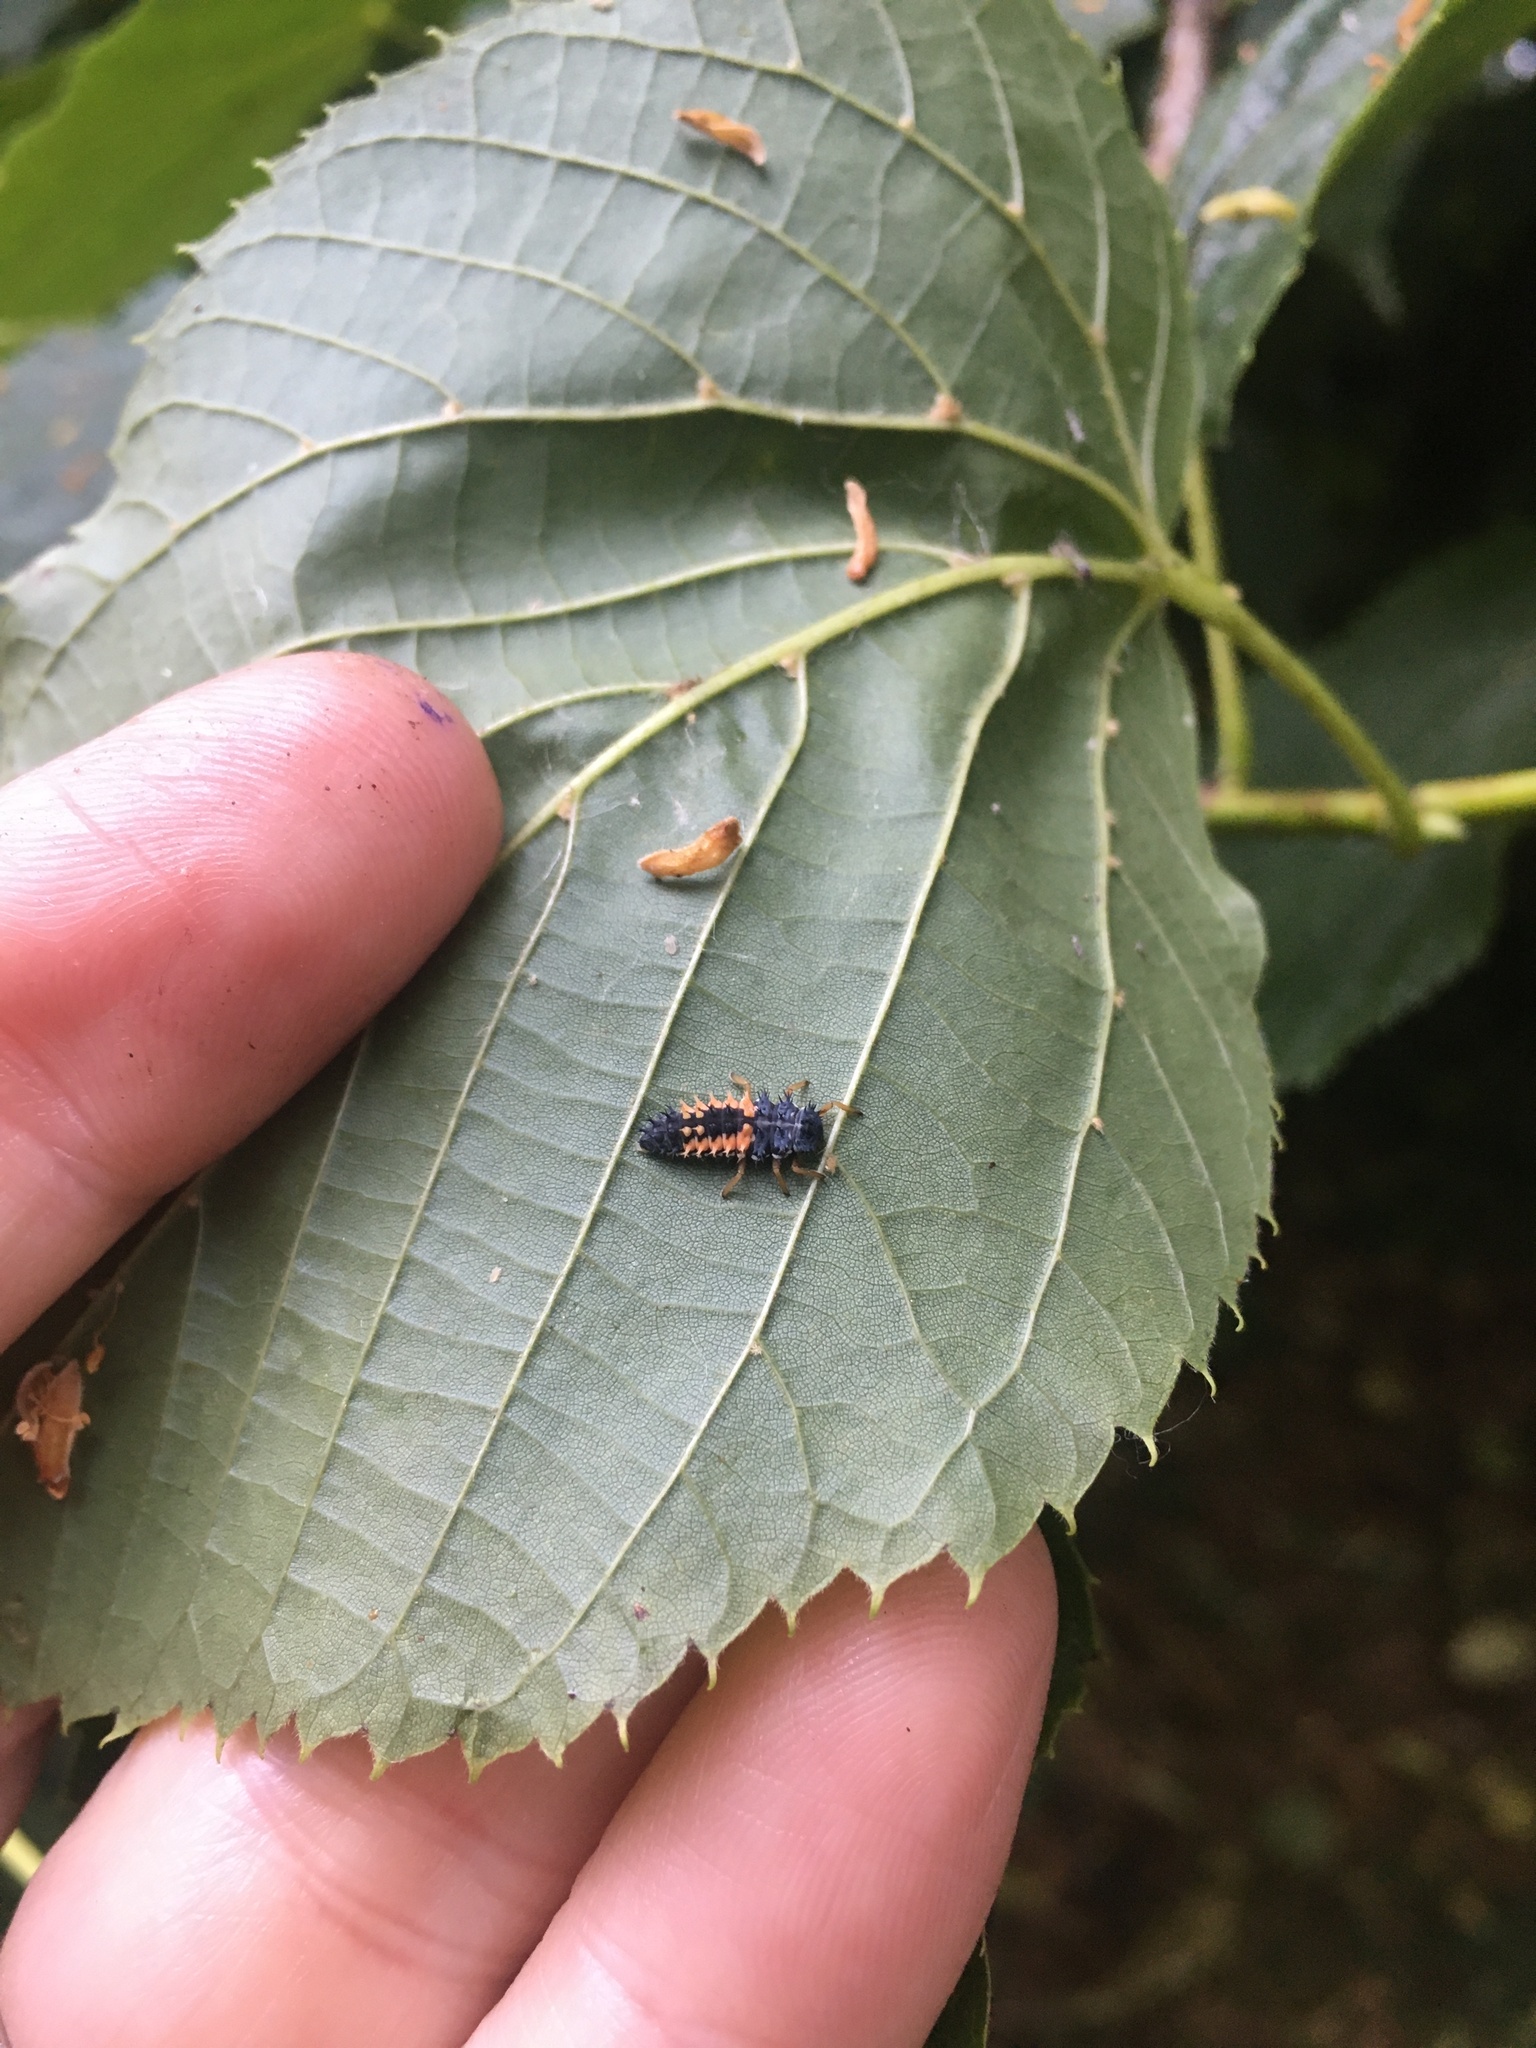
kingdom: Animalia
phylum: Arthropoda
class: Insecta
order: Coleoptera
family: Coccinellidae
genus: Harmonia
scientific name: Harmonia axyridis
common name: Harlequin ladybird
